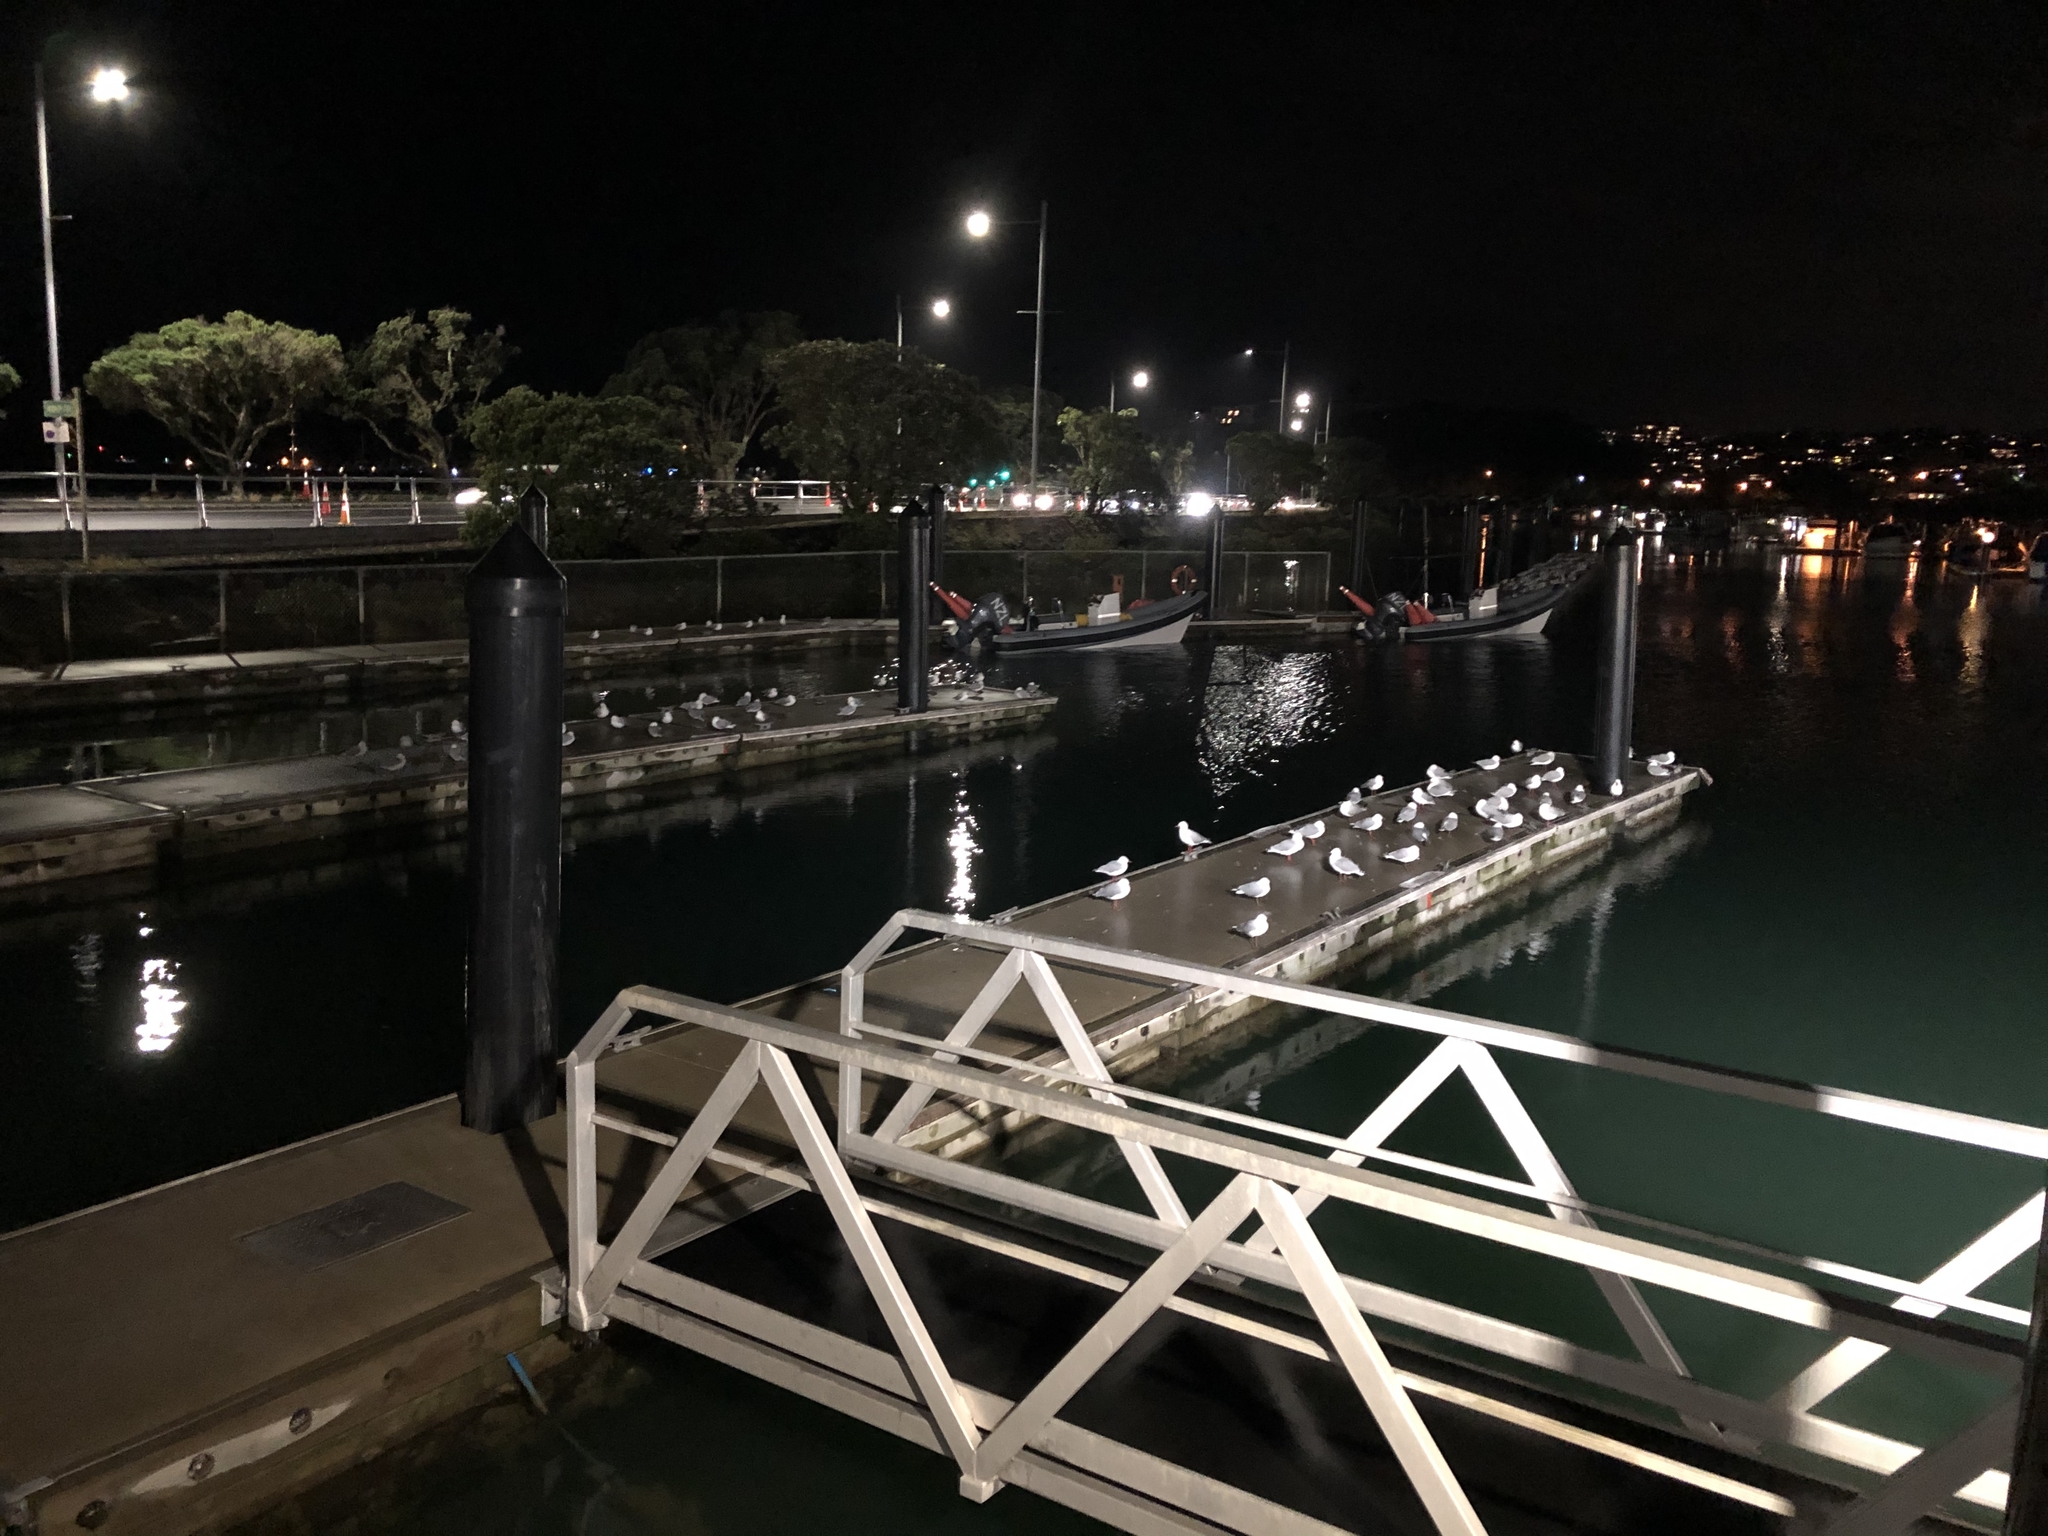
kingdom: Animalia
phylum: Chordata
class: Aves
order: Charadriiformes
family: Laridae
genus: Chroicocephalus
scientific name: Chroicocephalus novaehollandiae
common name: Silver gull
